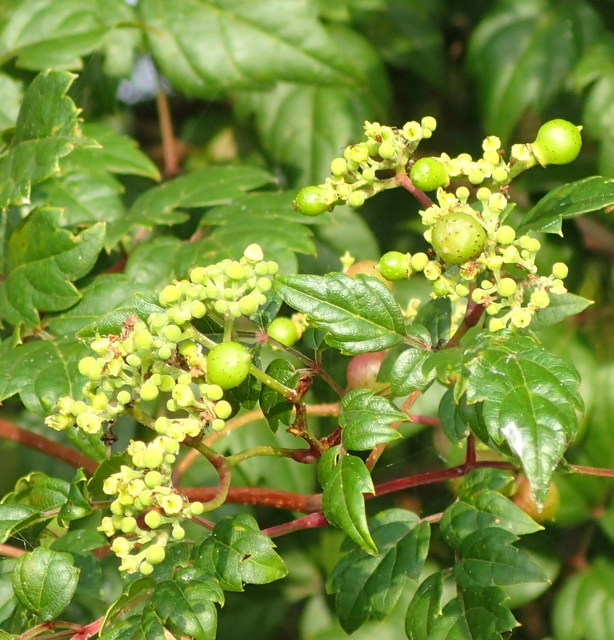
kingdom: Plantae
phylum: Tracheophyta
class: Magnoliopsida
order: Vitales
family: Vitaceae
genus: Nekemias
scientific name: Nekemias arborea
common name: Peppervine
